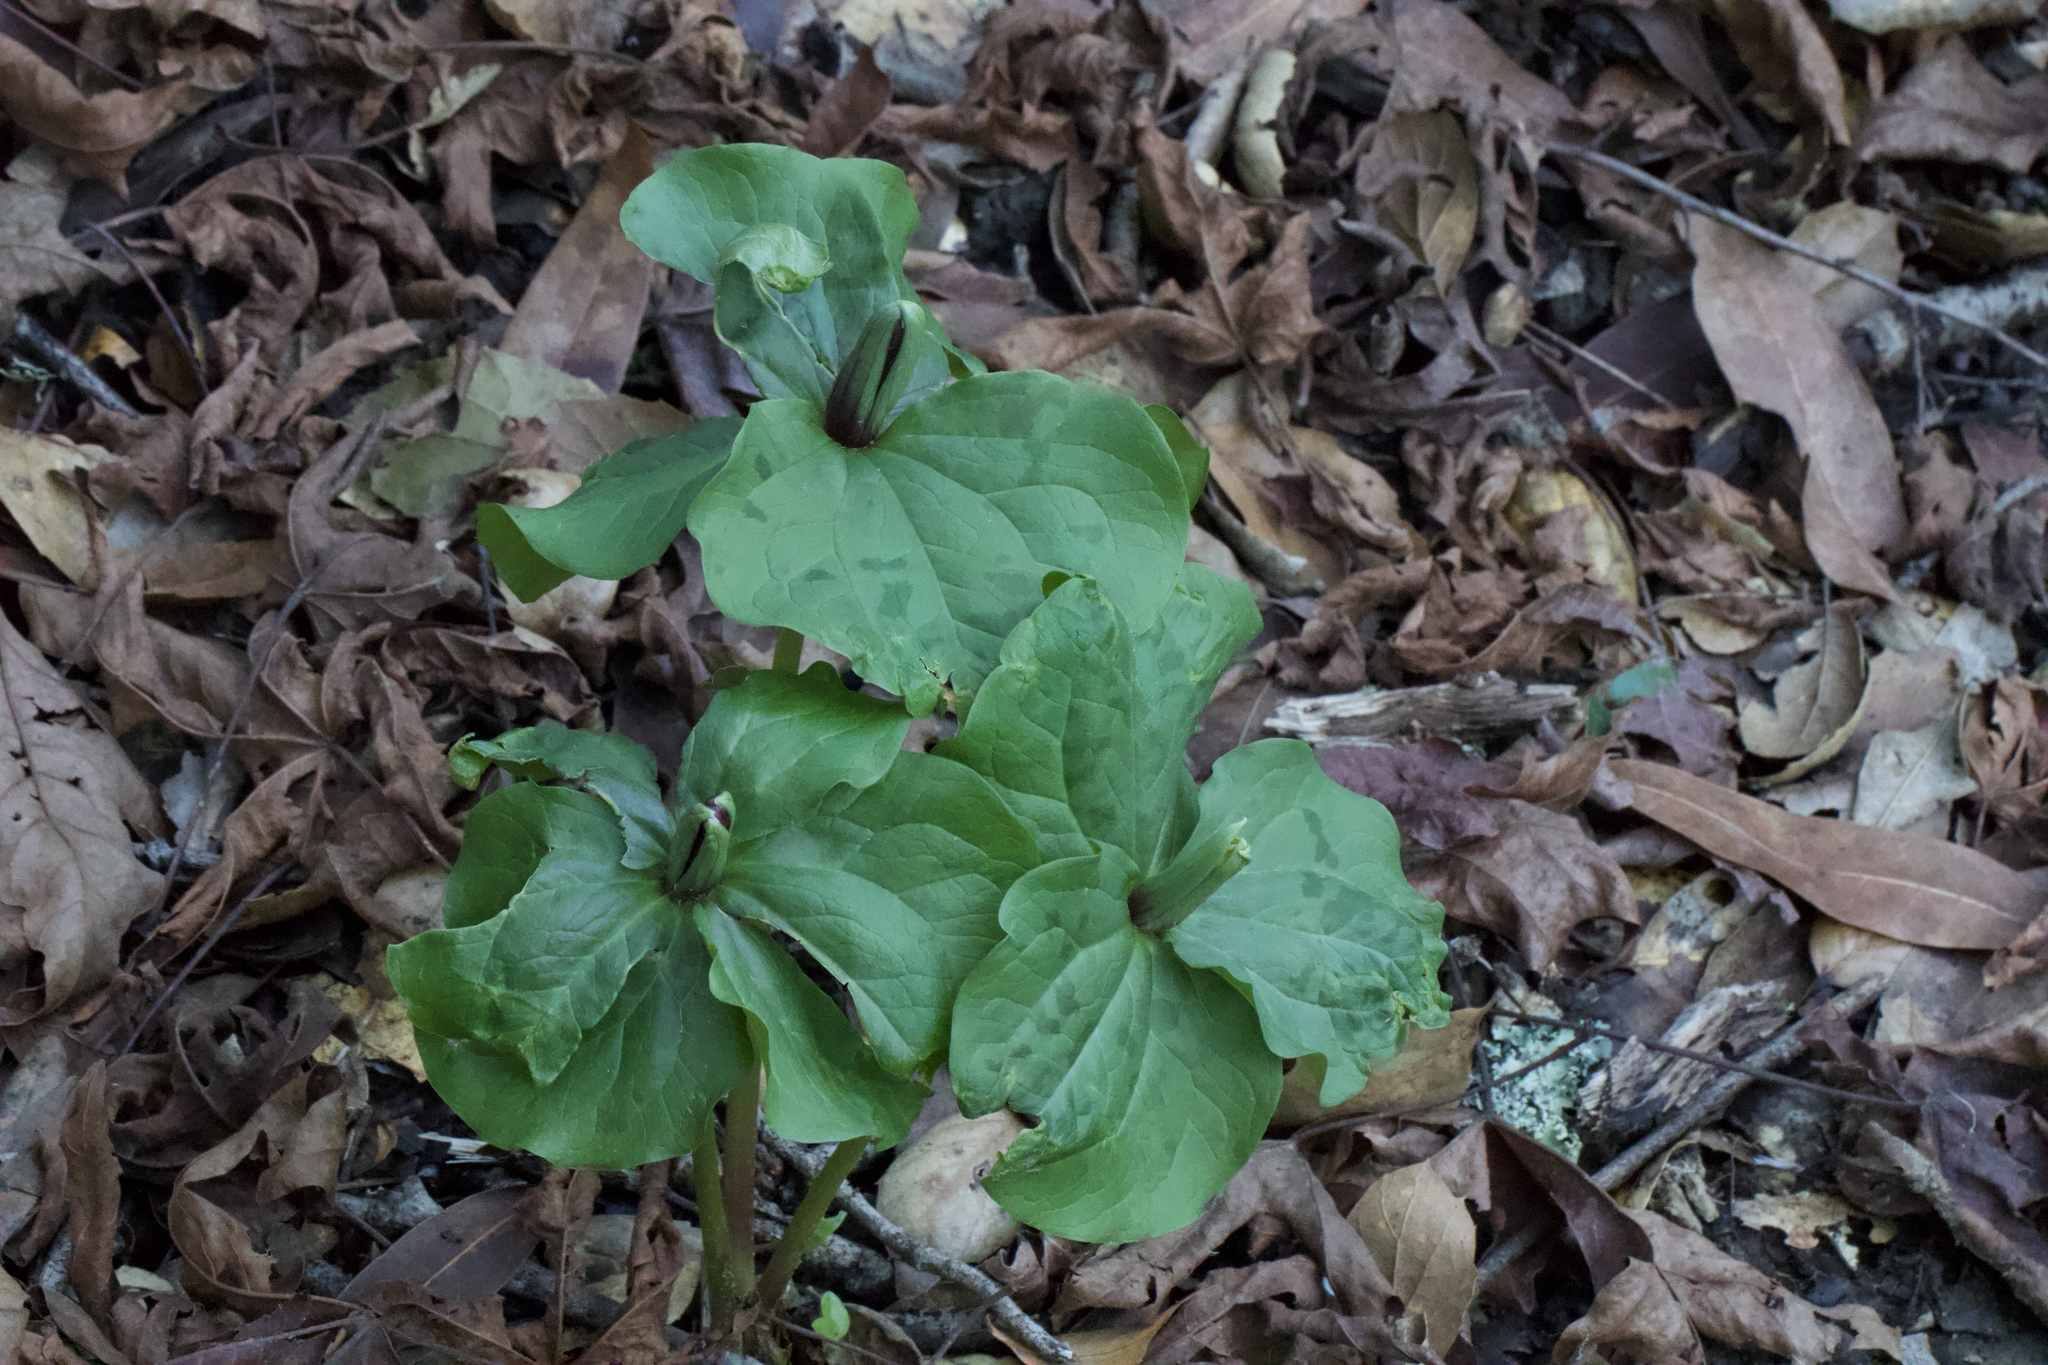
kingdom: Plantae
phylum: Tracheophyta
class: Liliopsida
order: Liliales
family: Melanthiaceae
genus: Trillium
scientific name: Trillium chloropetalum
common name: Giant trillium
